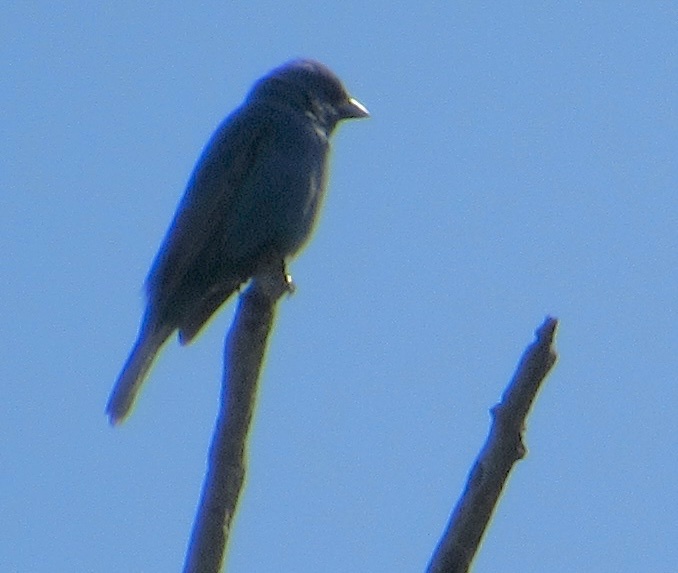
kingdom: Animalia
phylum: Chordata
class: Aves
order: Passeriformes
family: Cardinalidae
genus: Passerina
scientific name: Passerina cyanea
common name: Indigo bunting
